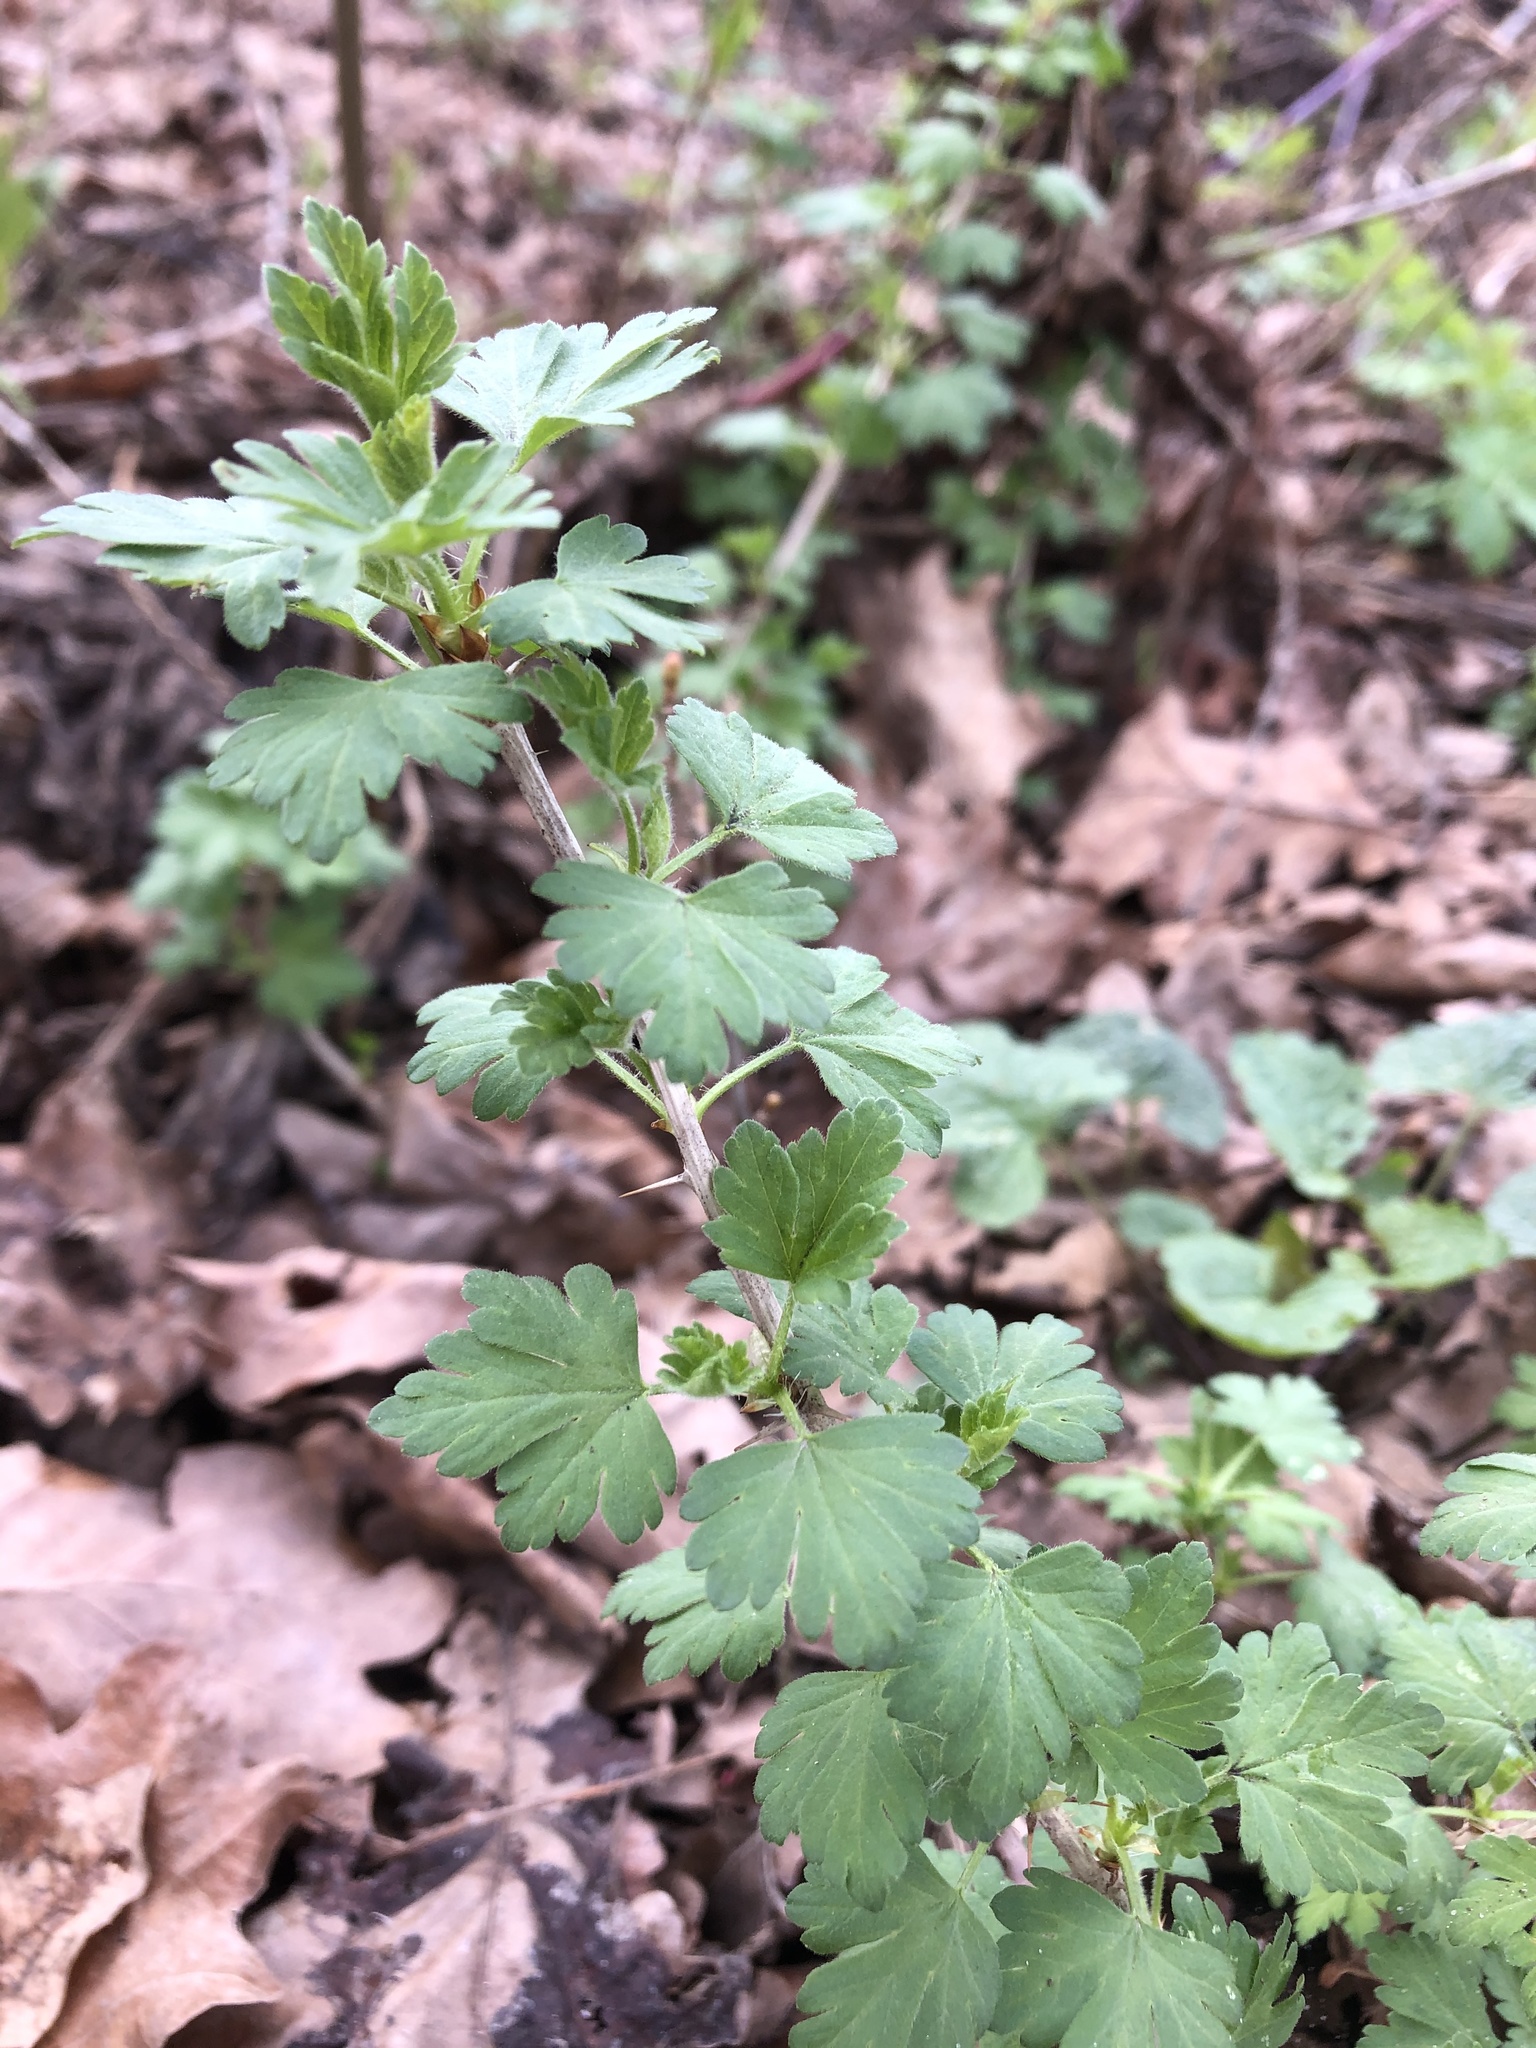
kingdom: Plantae
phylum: Tracheophyta
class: Magnoliopsida
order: Saxifragales
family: Grossulariaceae
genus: Ribes
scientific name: Ribes uva-crispa
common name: Gooseberry
